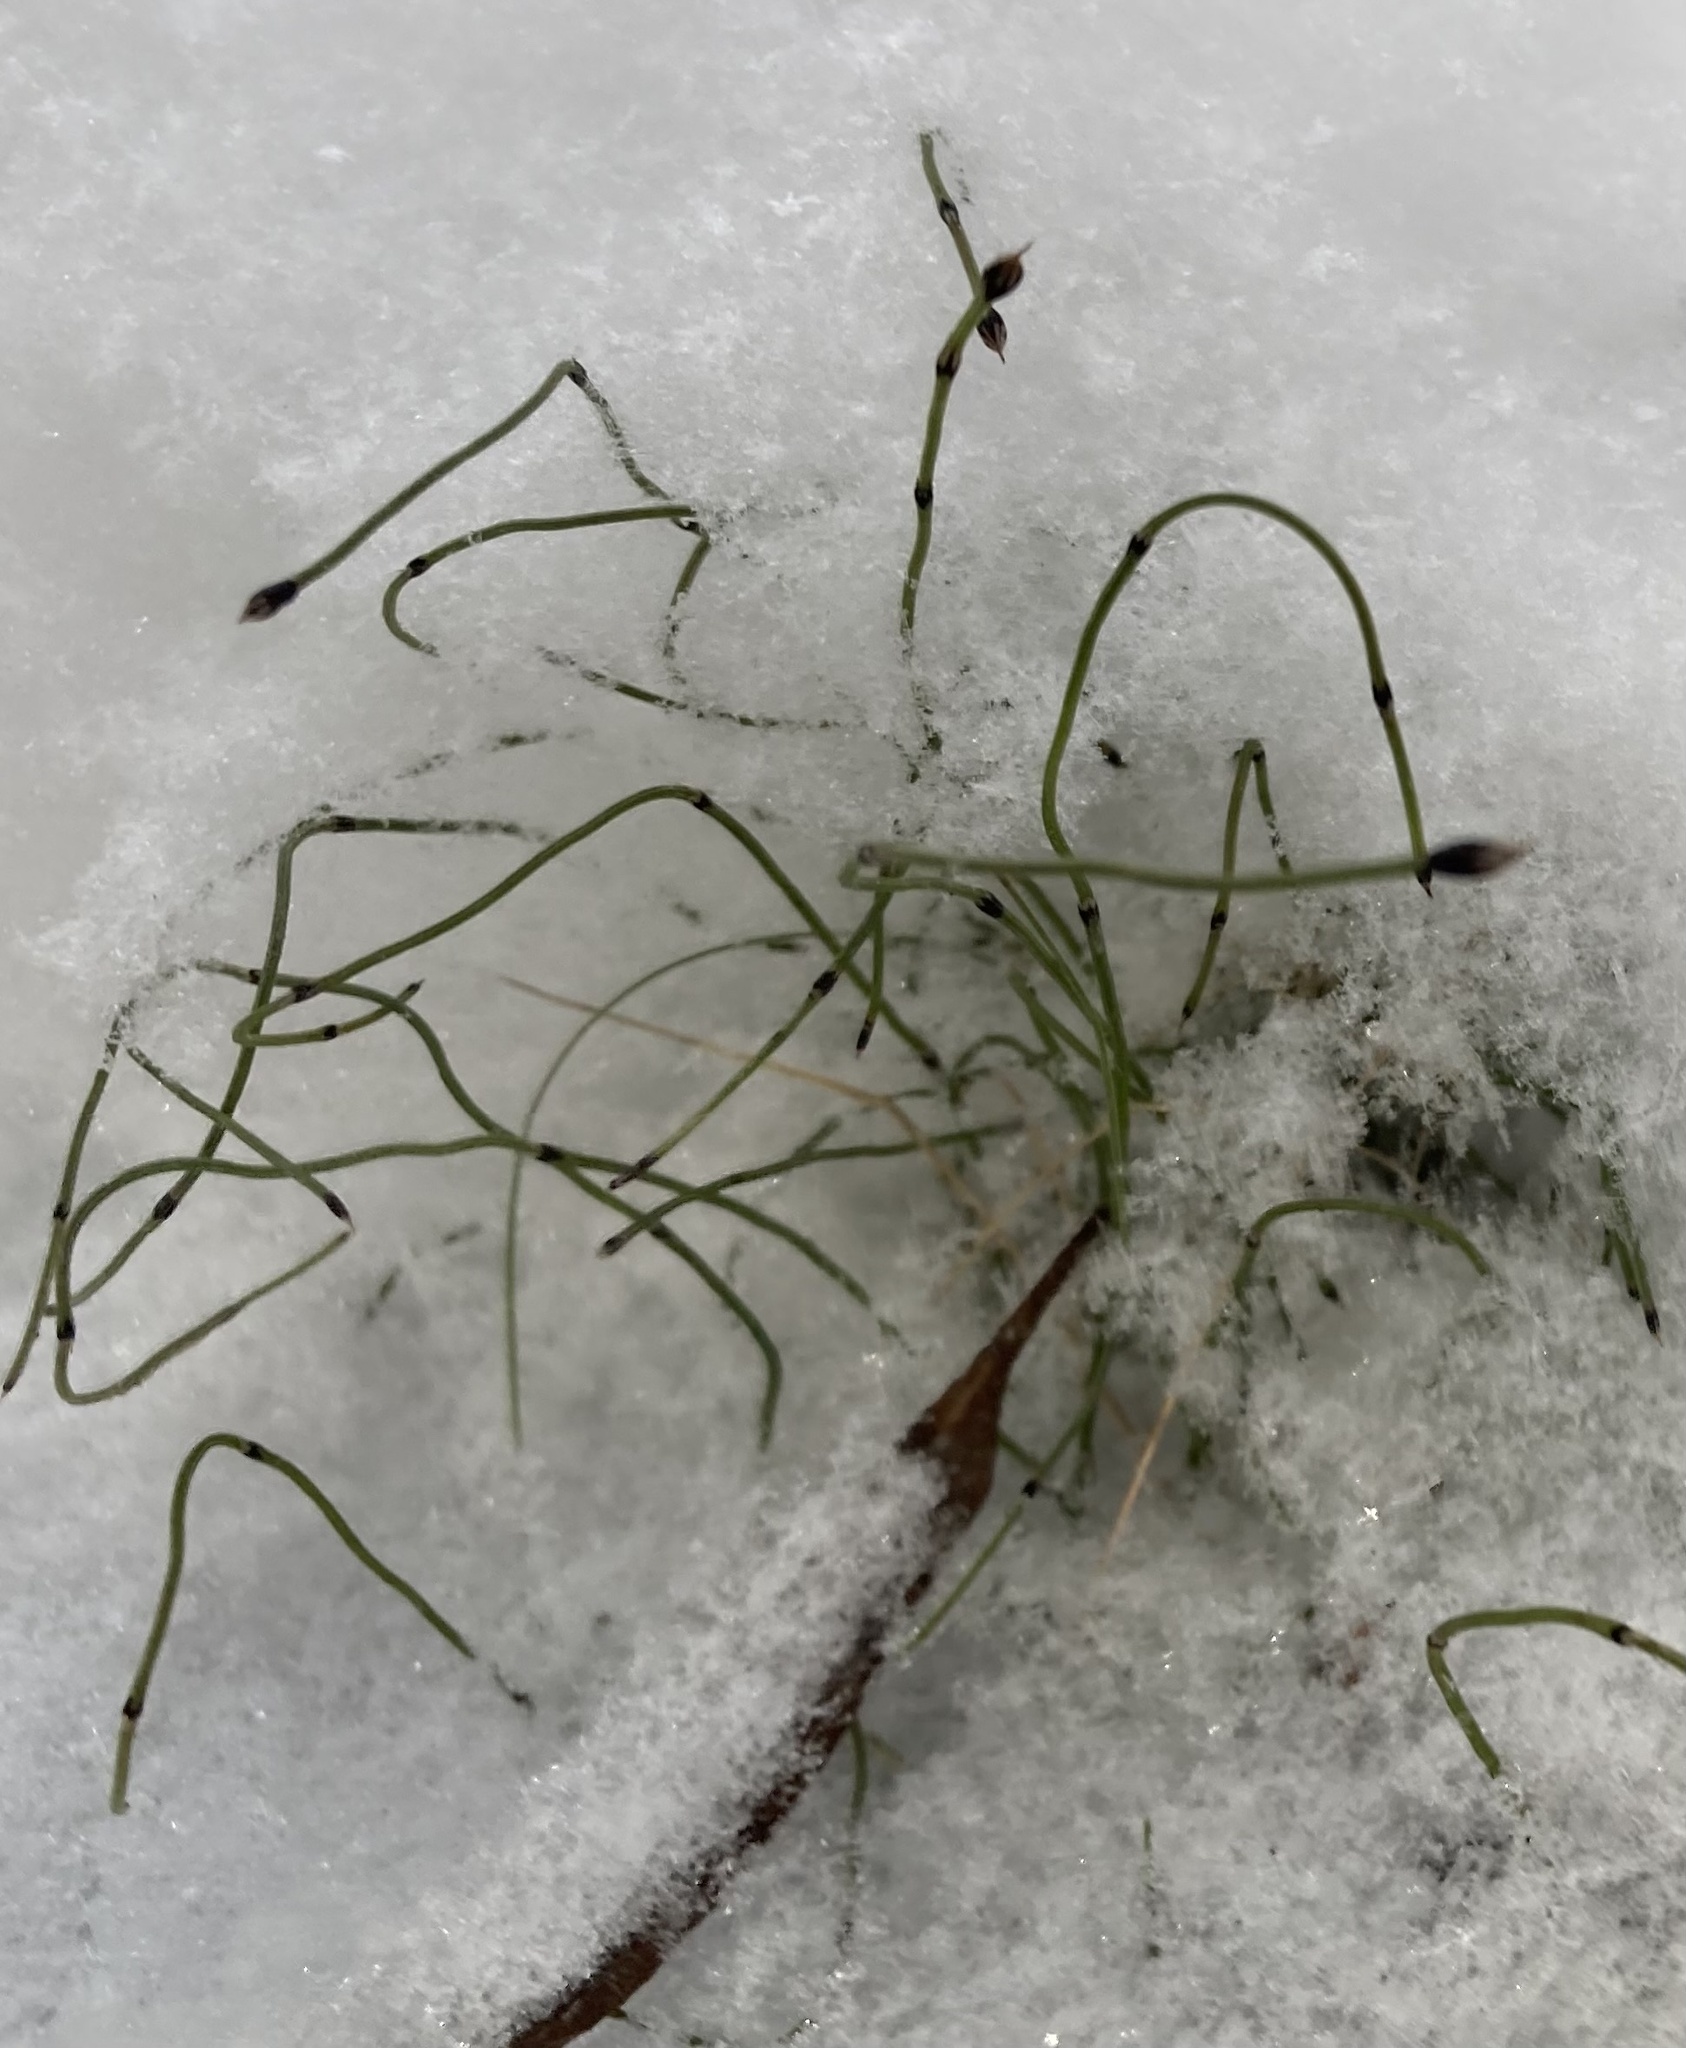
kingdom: Plantae
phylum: Tracheophyta
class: Polypodiopsida
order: Equisetales
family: Equisetaceae
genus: Equisetum
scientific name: Equisetum scirpoides
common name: Delicate horsetail
